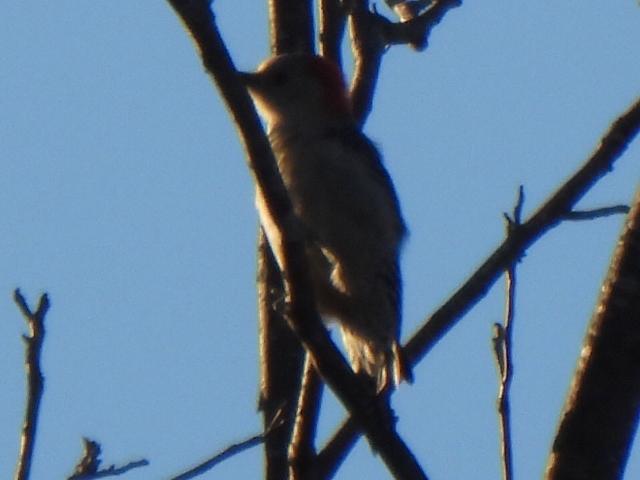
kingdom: Animalia
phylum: Chordata
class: Aves
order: Piciformes
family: Picidae
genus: Melanerpes
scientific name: Melanerpes carolinus
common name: Red-bellied woodpecker
